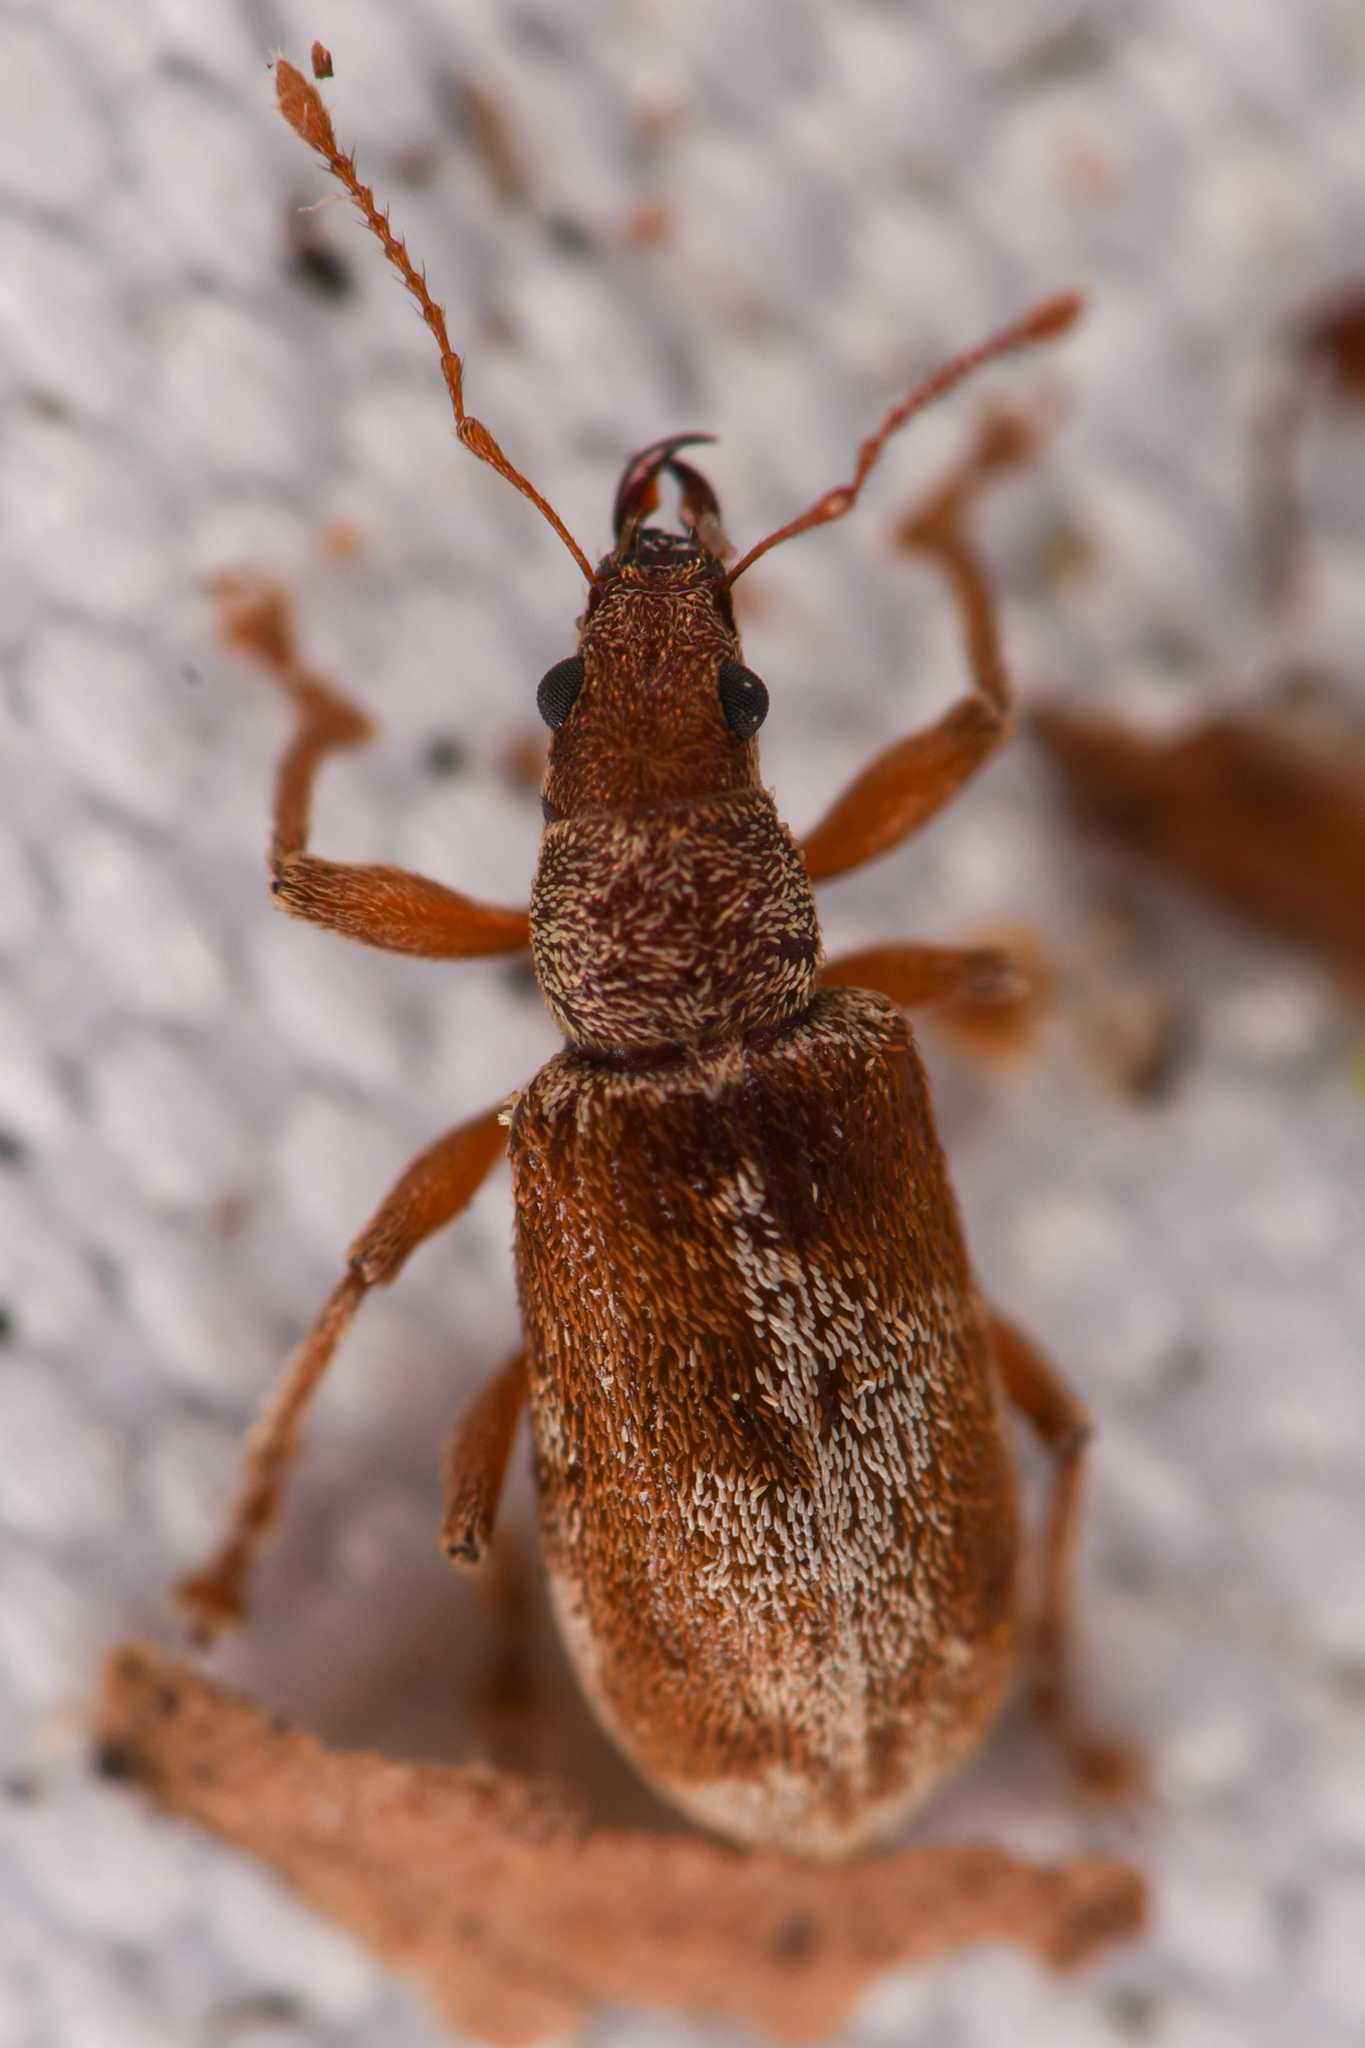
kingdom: Animalia
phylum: Arthropoda
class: Insecta
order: Coleoptera
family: Curculionidae
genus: Pachyrhinus
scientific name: Pachyrhinus californicus
